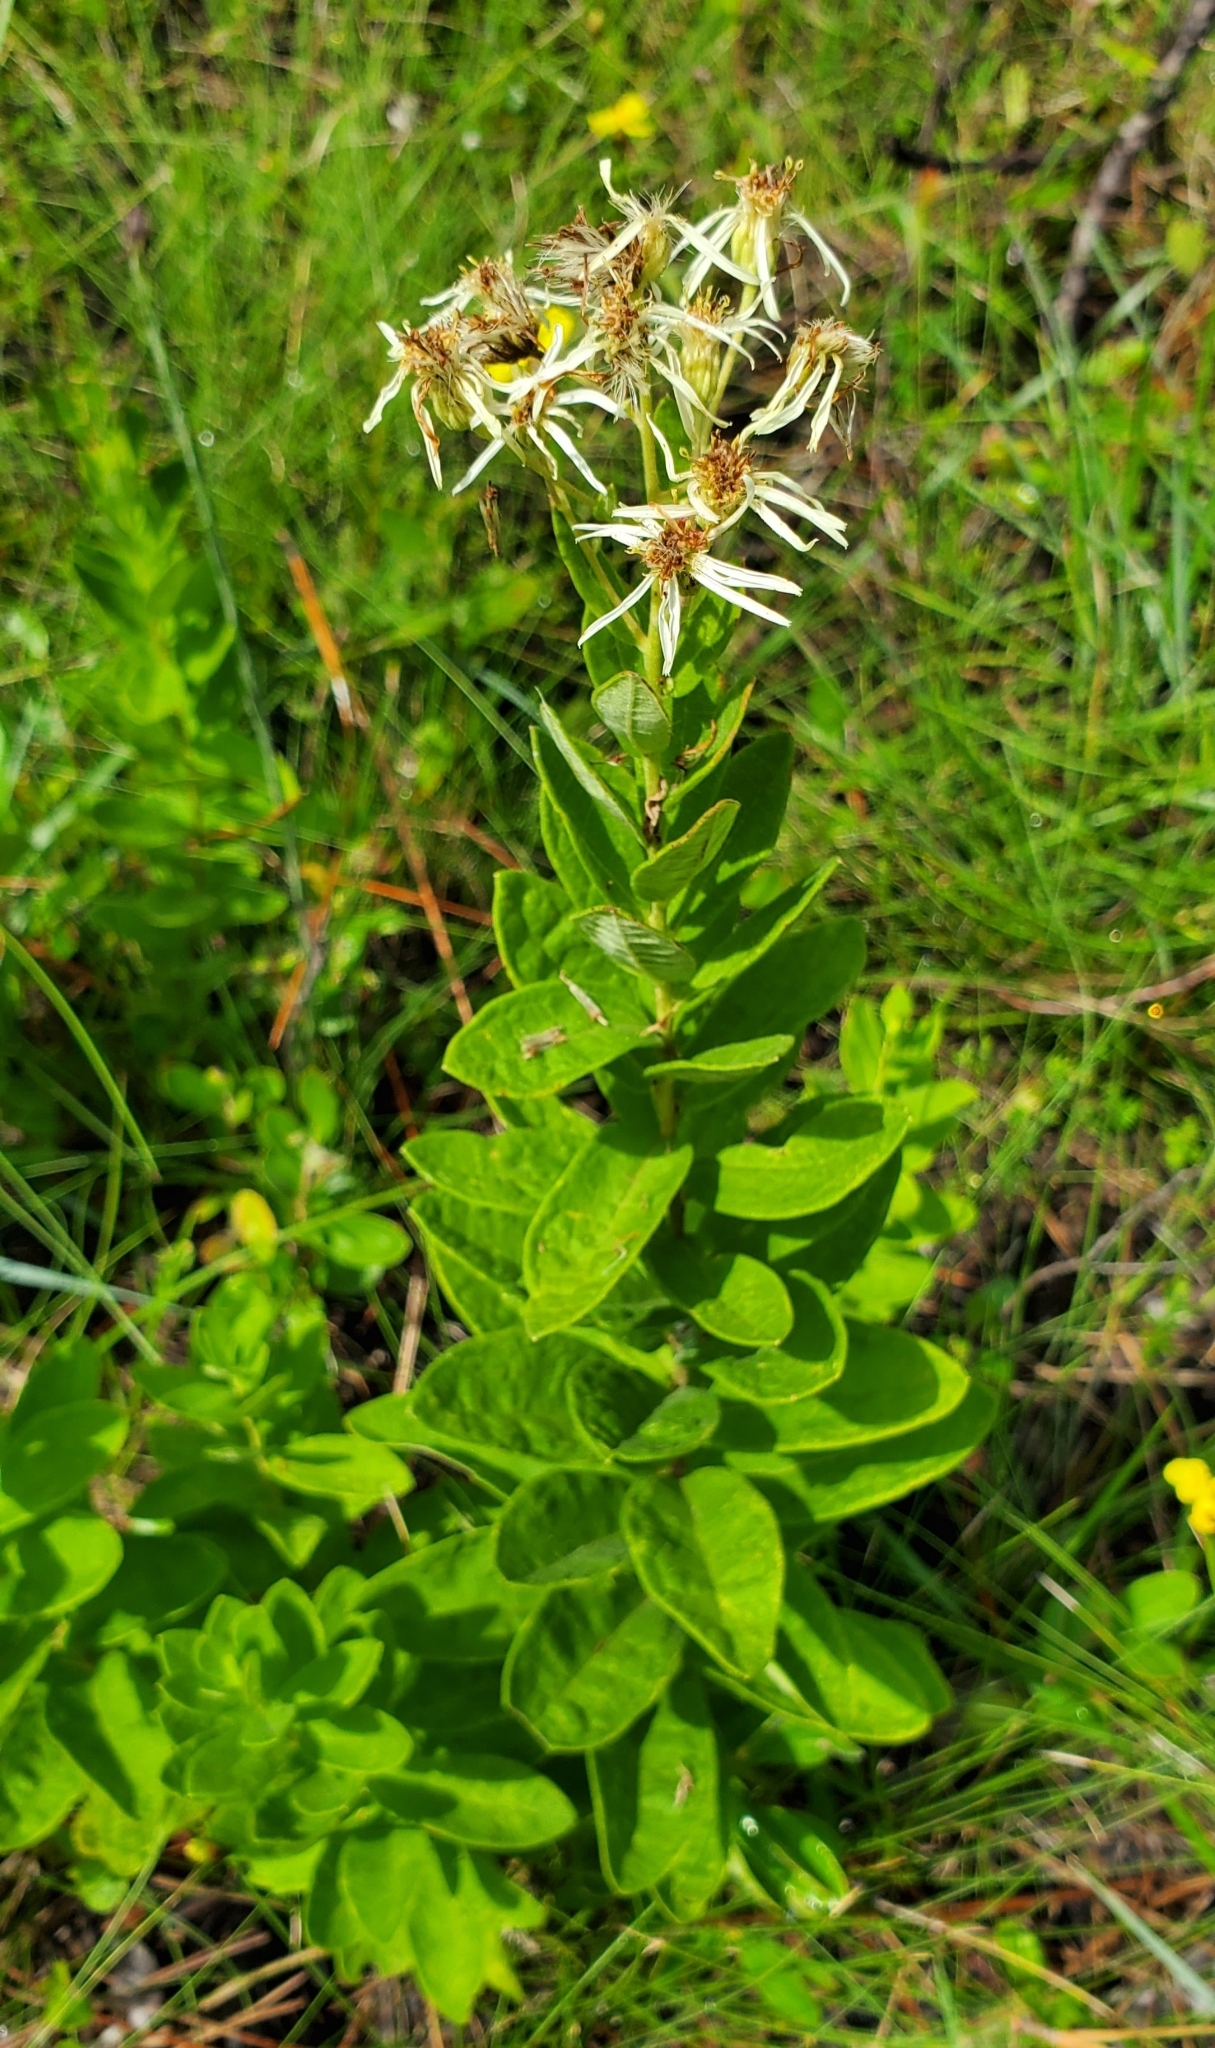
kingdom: Plantae
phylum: Tracheophyta
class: Magnoliopsida
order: Asterales
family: Asteraceae
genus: Oclemena
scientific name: Oclemena reticulata
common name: Pinebarren aster
